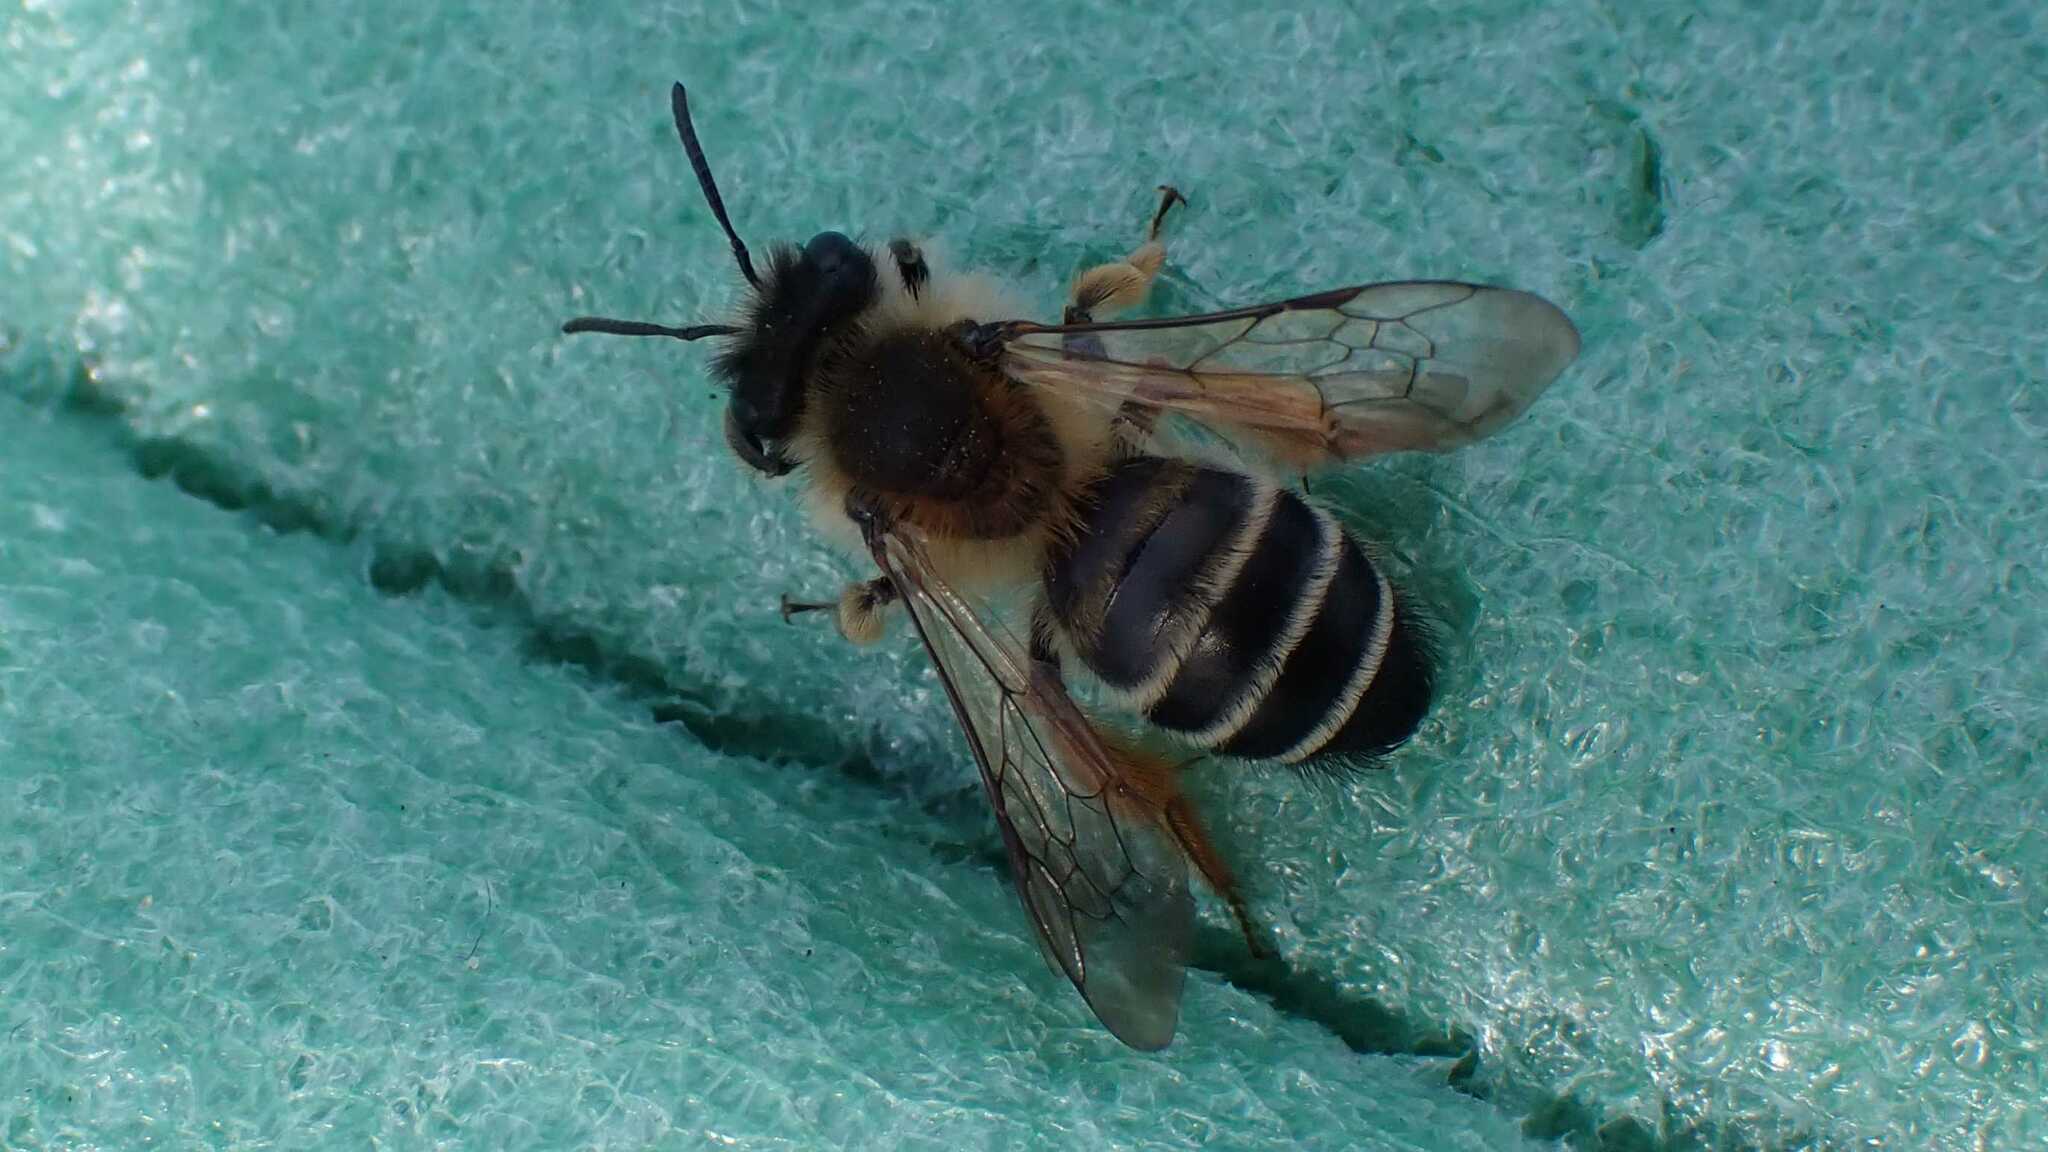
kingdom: Animalia
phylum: Arthropoda
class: Insecta
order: Hymenoptera
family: Andrenidae
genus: Andrena
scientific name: Andrena gravida
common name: White-bellied mining bee
